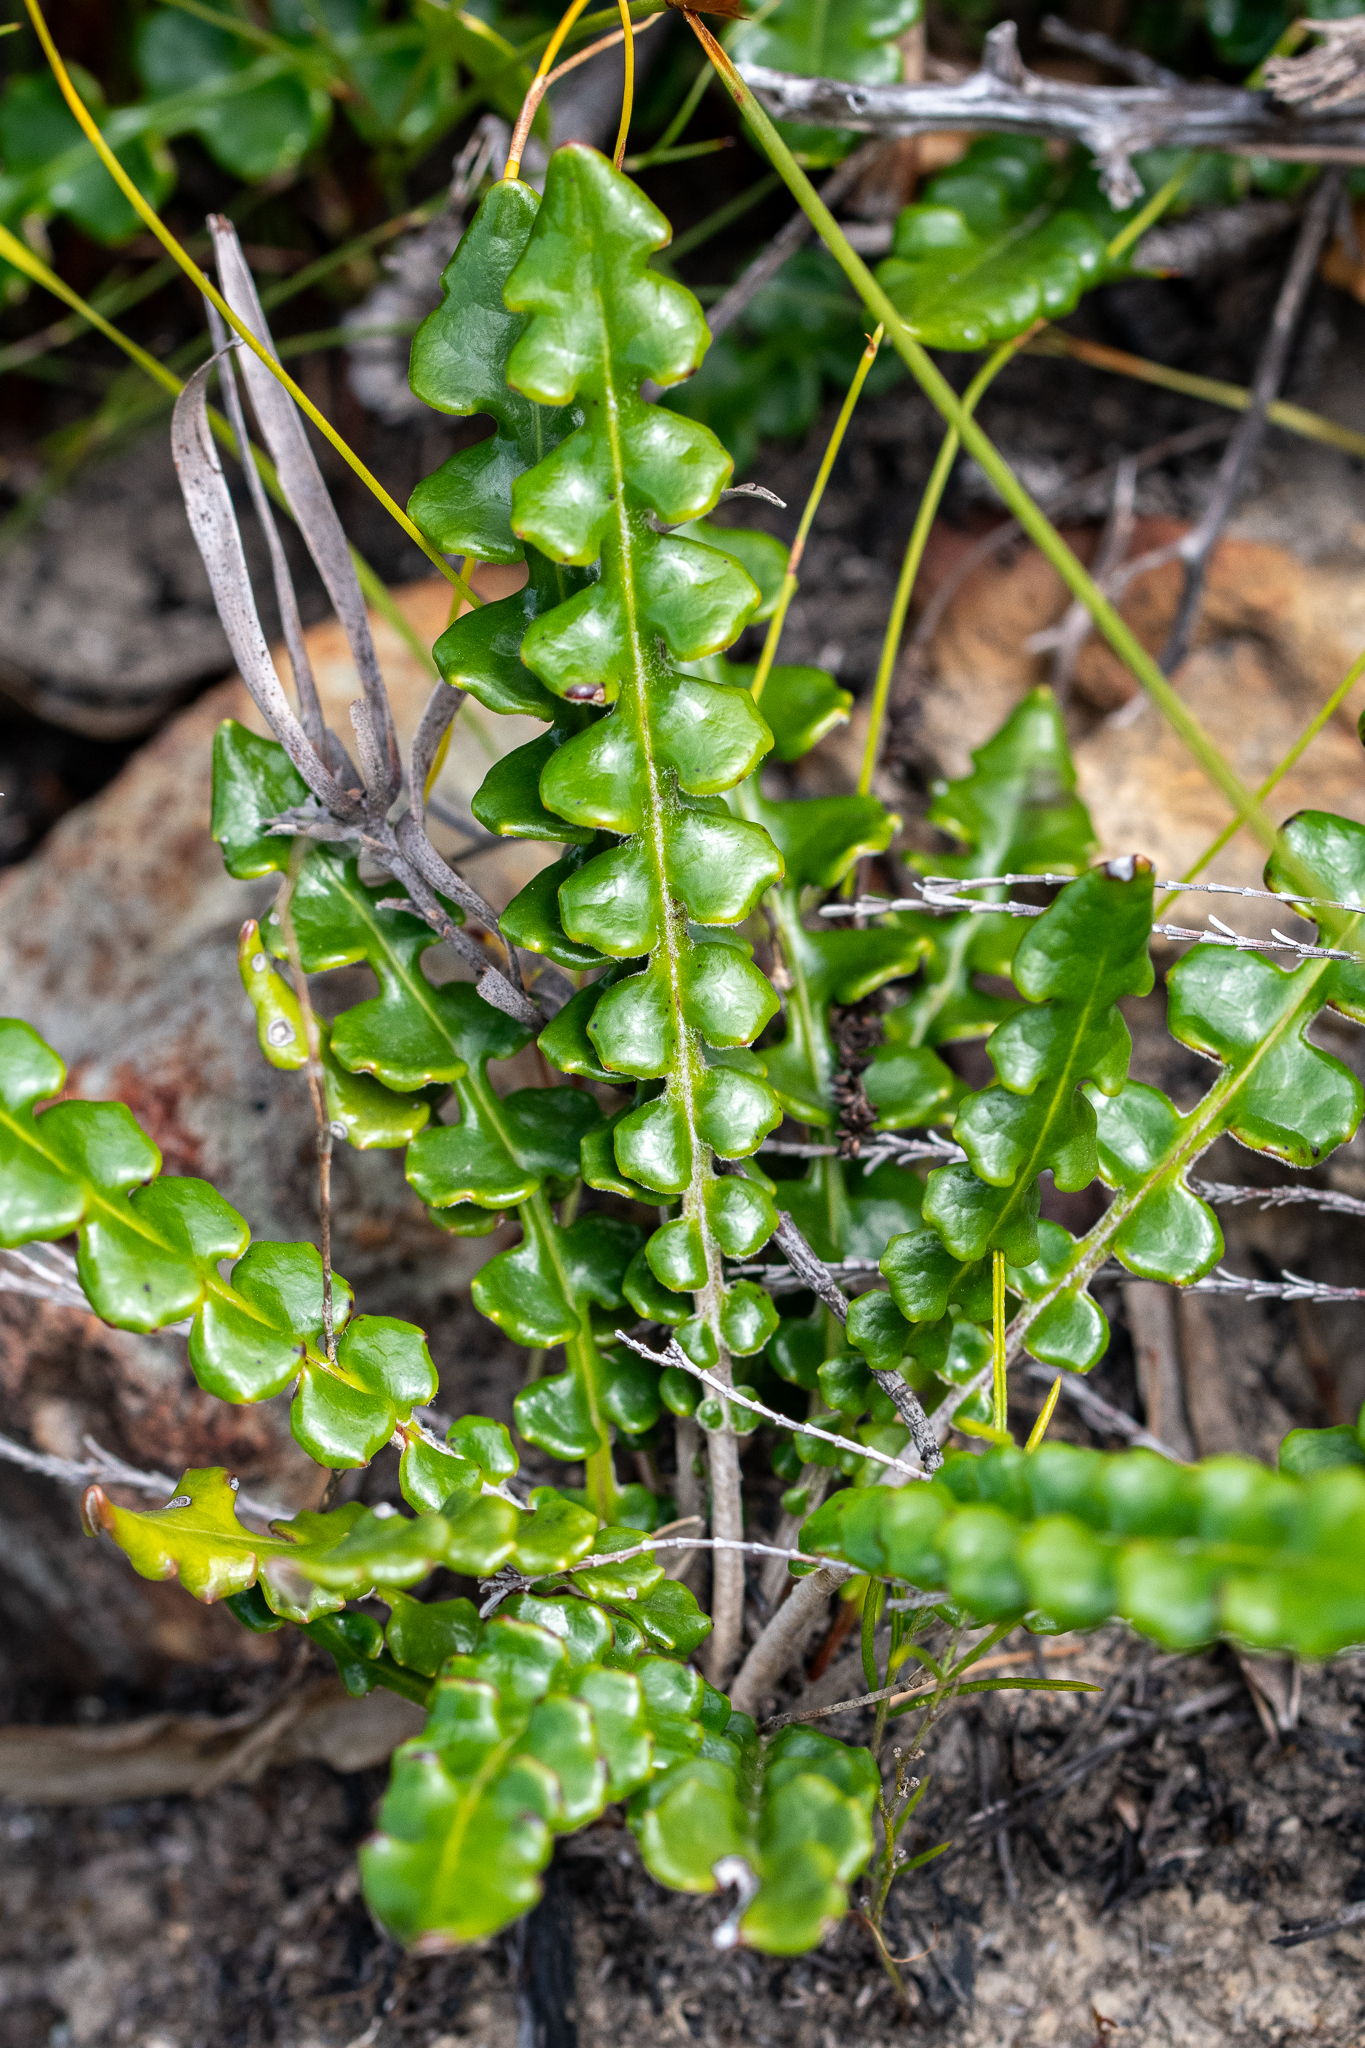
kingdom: Plantae
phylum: Tracheophyta
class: Magnoliopsida
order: Asterales
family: Asteraceae
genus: Gerbera
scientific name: Gerbera linnaei
